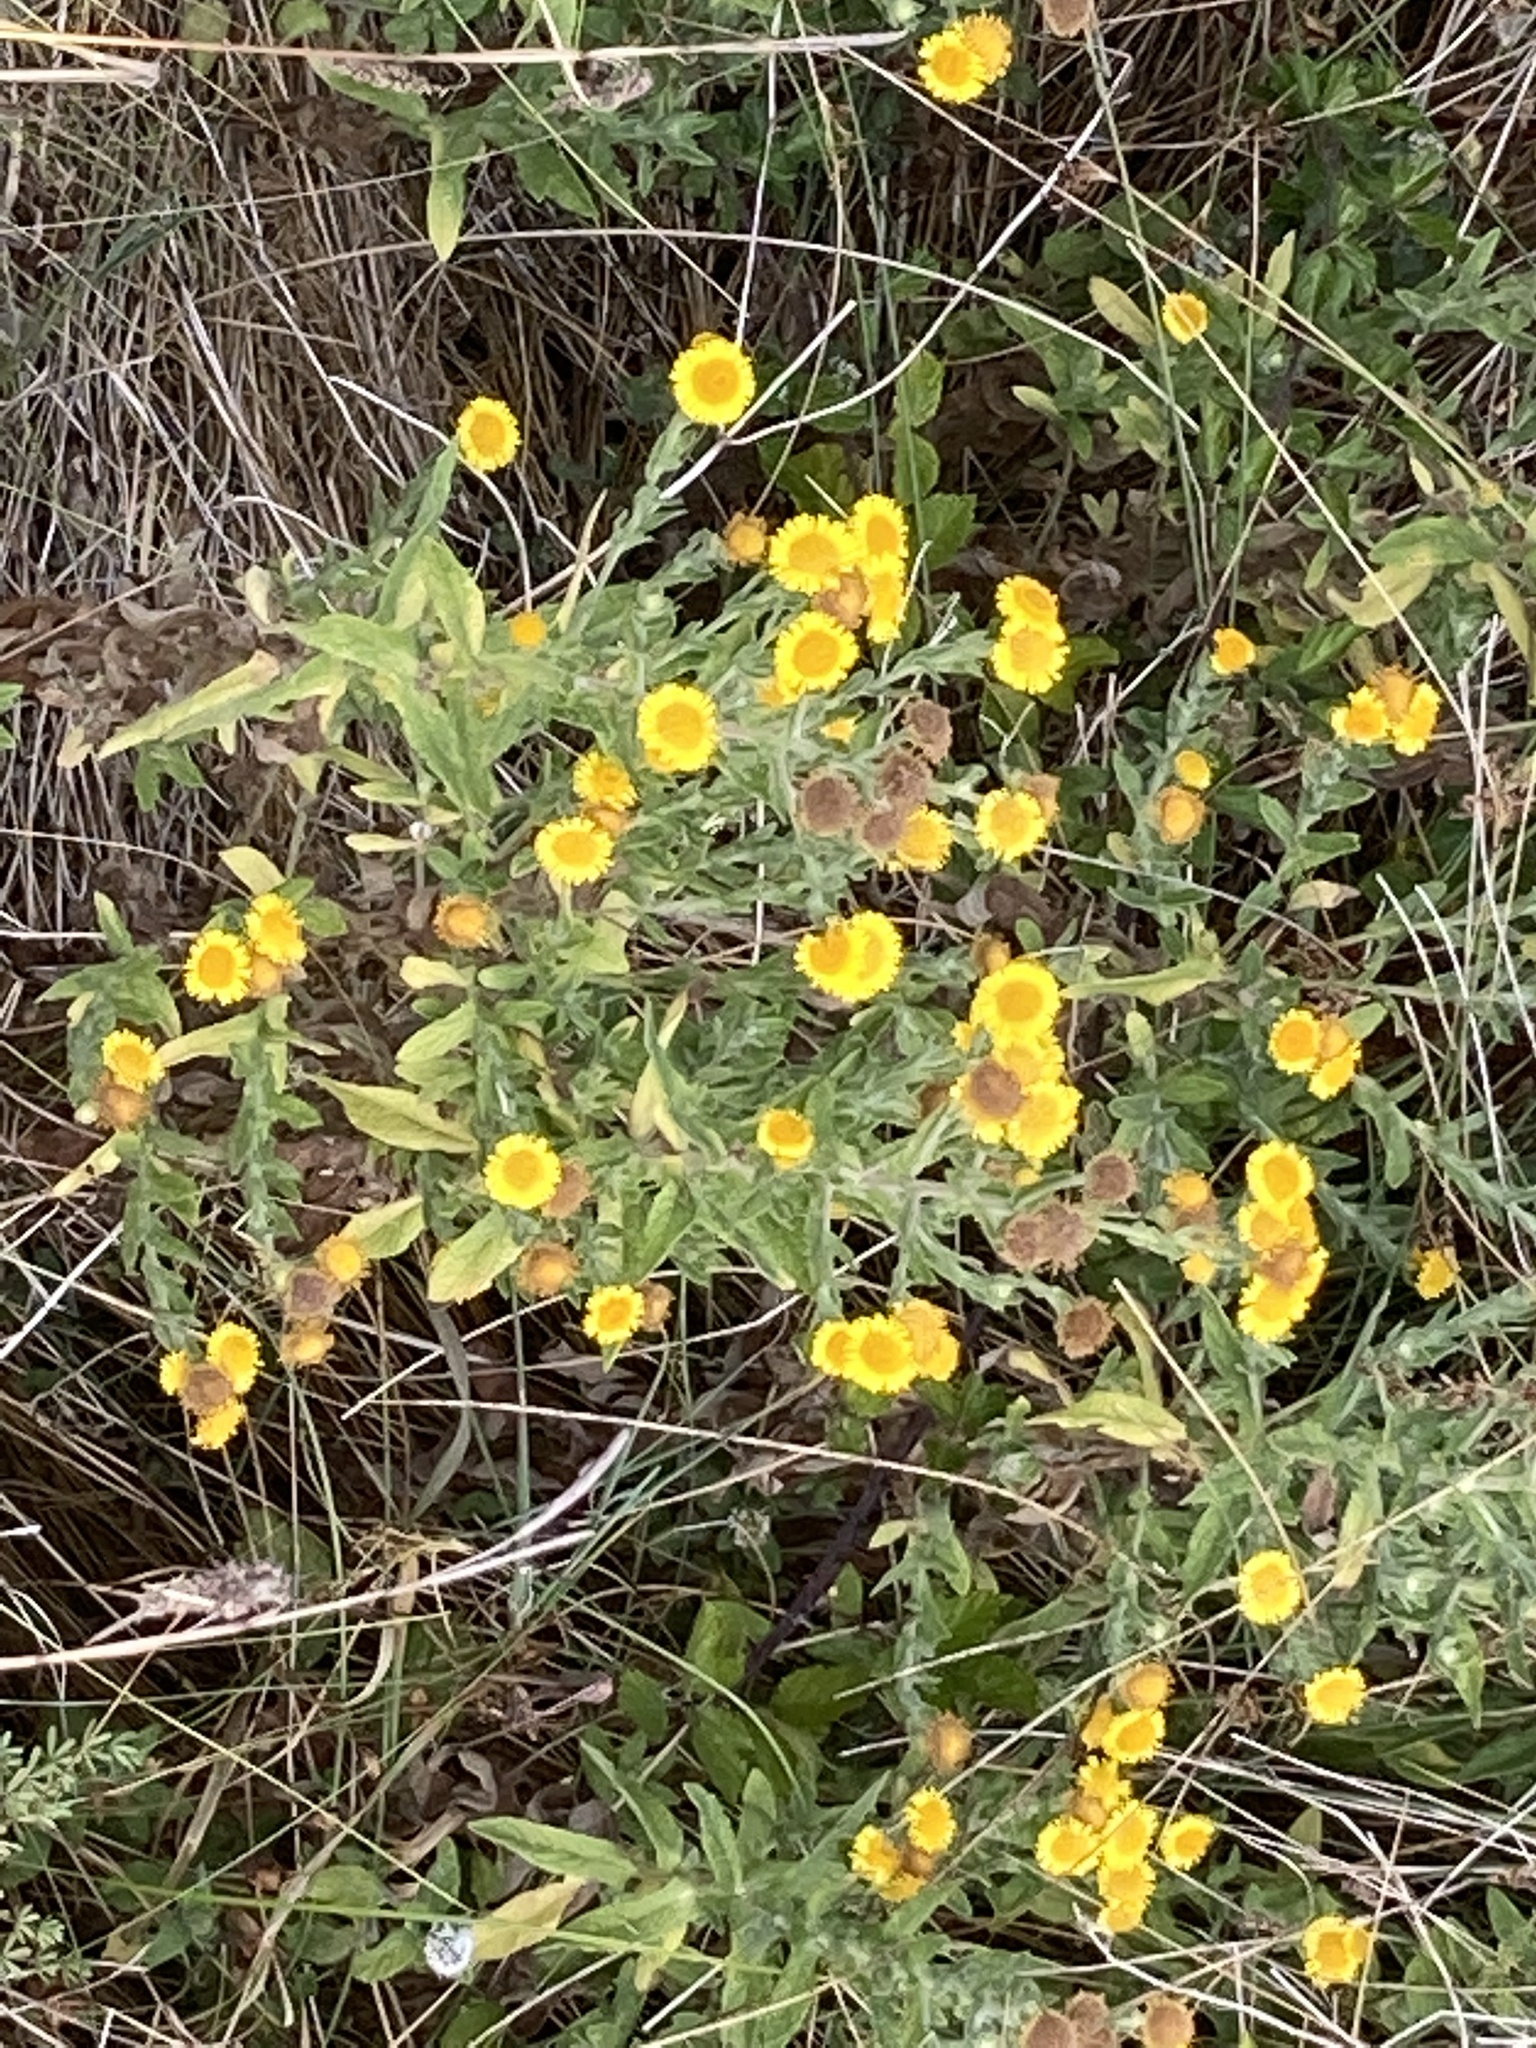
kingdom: Plantae
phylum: Tracheophyta
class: Magnoliopsida
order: Asterales
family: Asteraceae
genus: Pulicaria
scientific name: Pulicaria dysenterica
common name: Common fleabane
